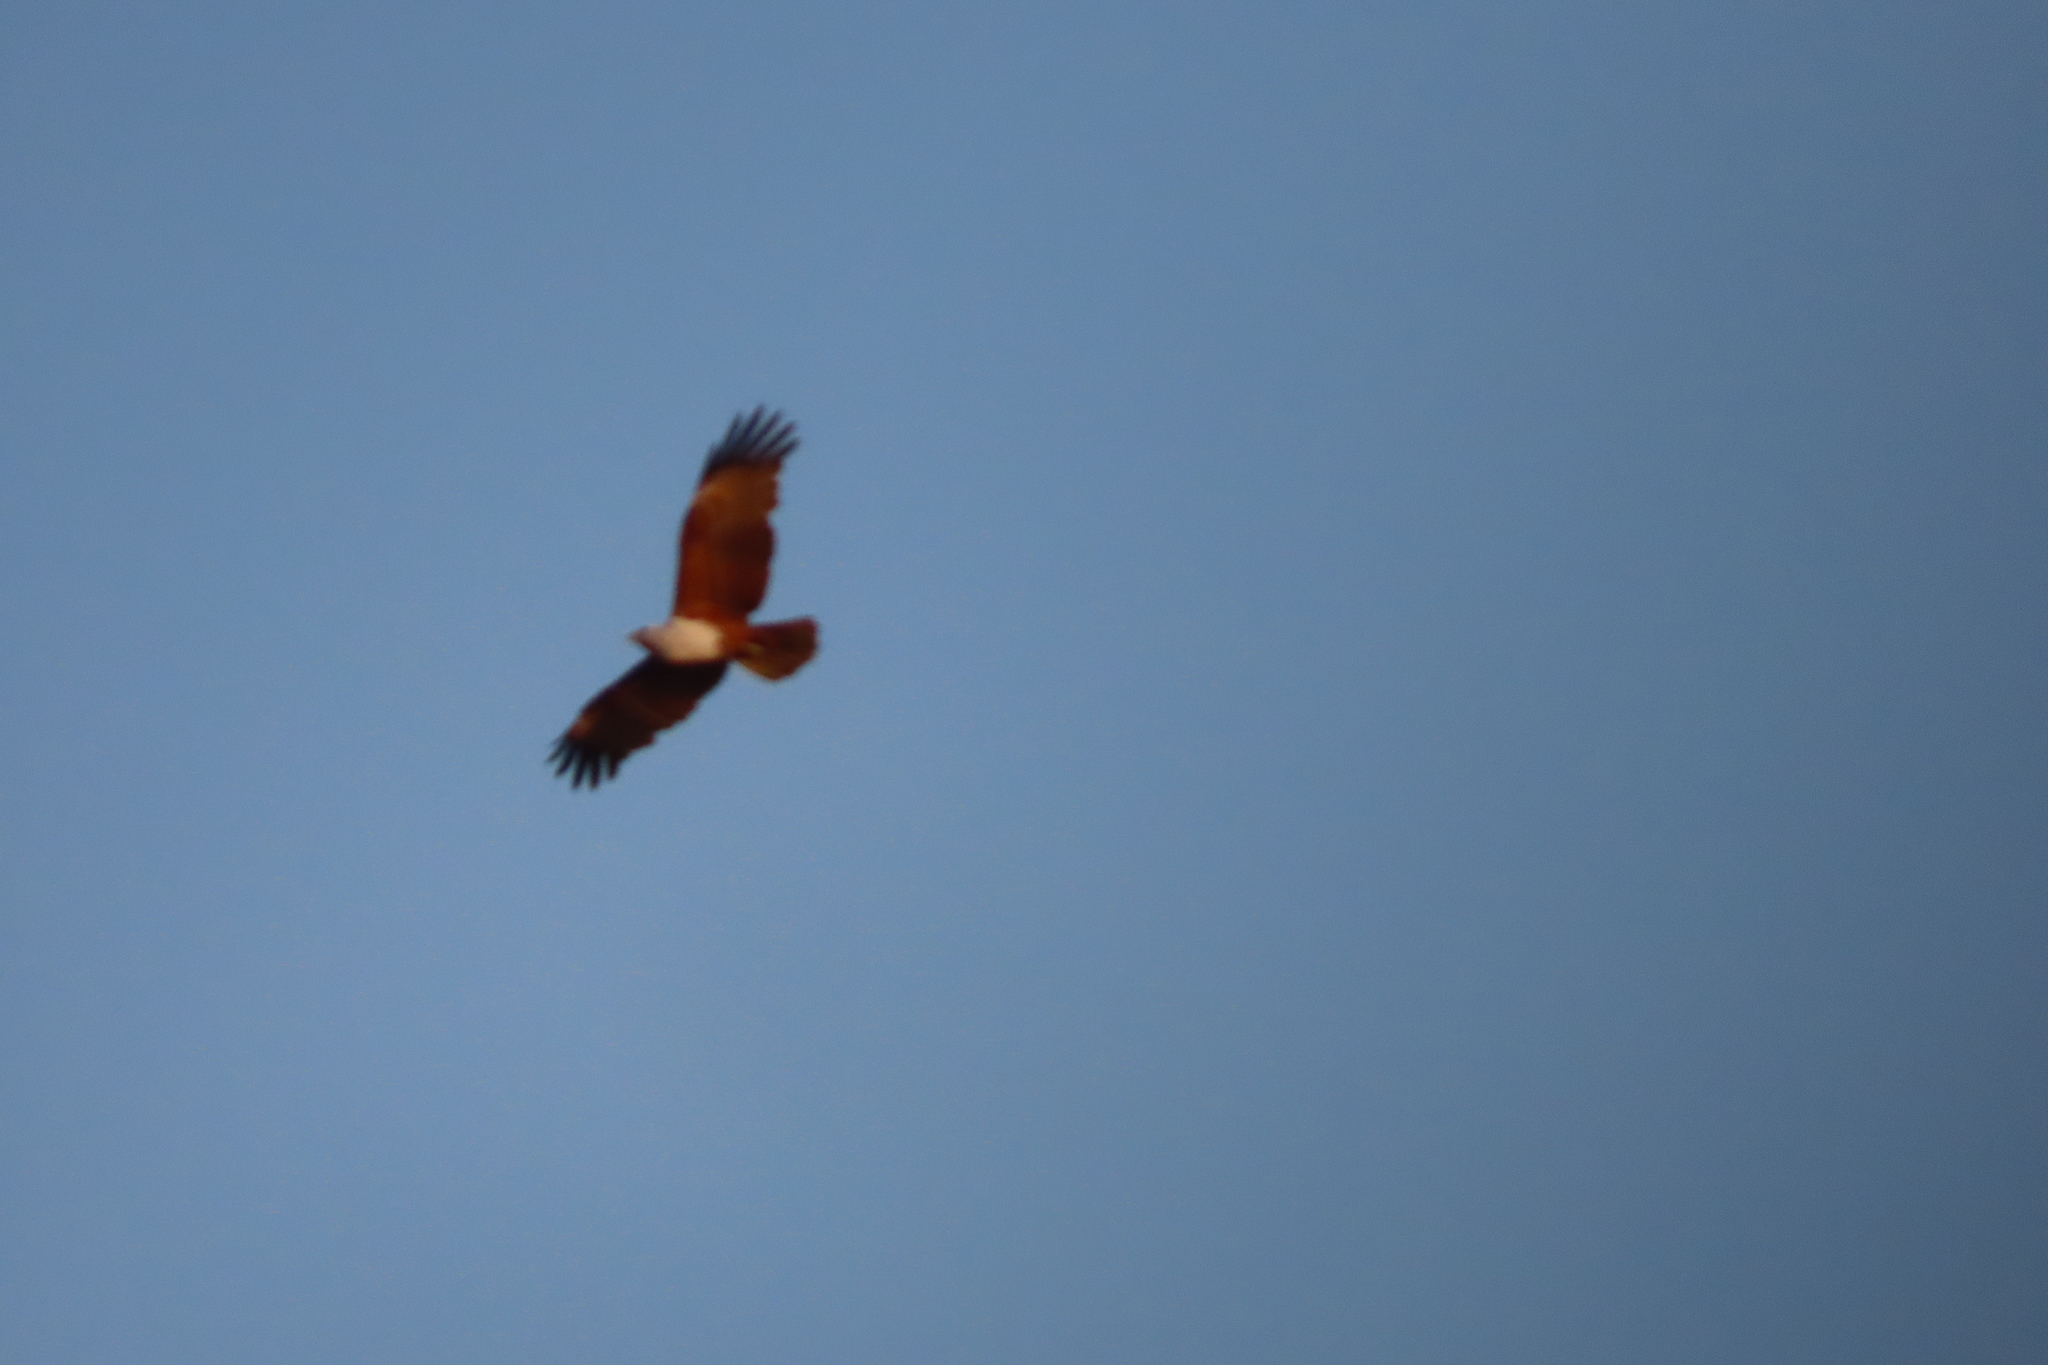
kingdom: Animalia
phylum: Chordata
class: Aves
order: Accipitriformes
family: Accipitridae
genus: Haliastur
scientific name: Haliastur indus
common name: Brahminy kite
